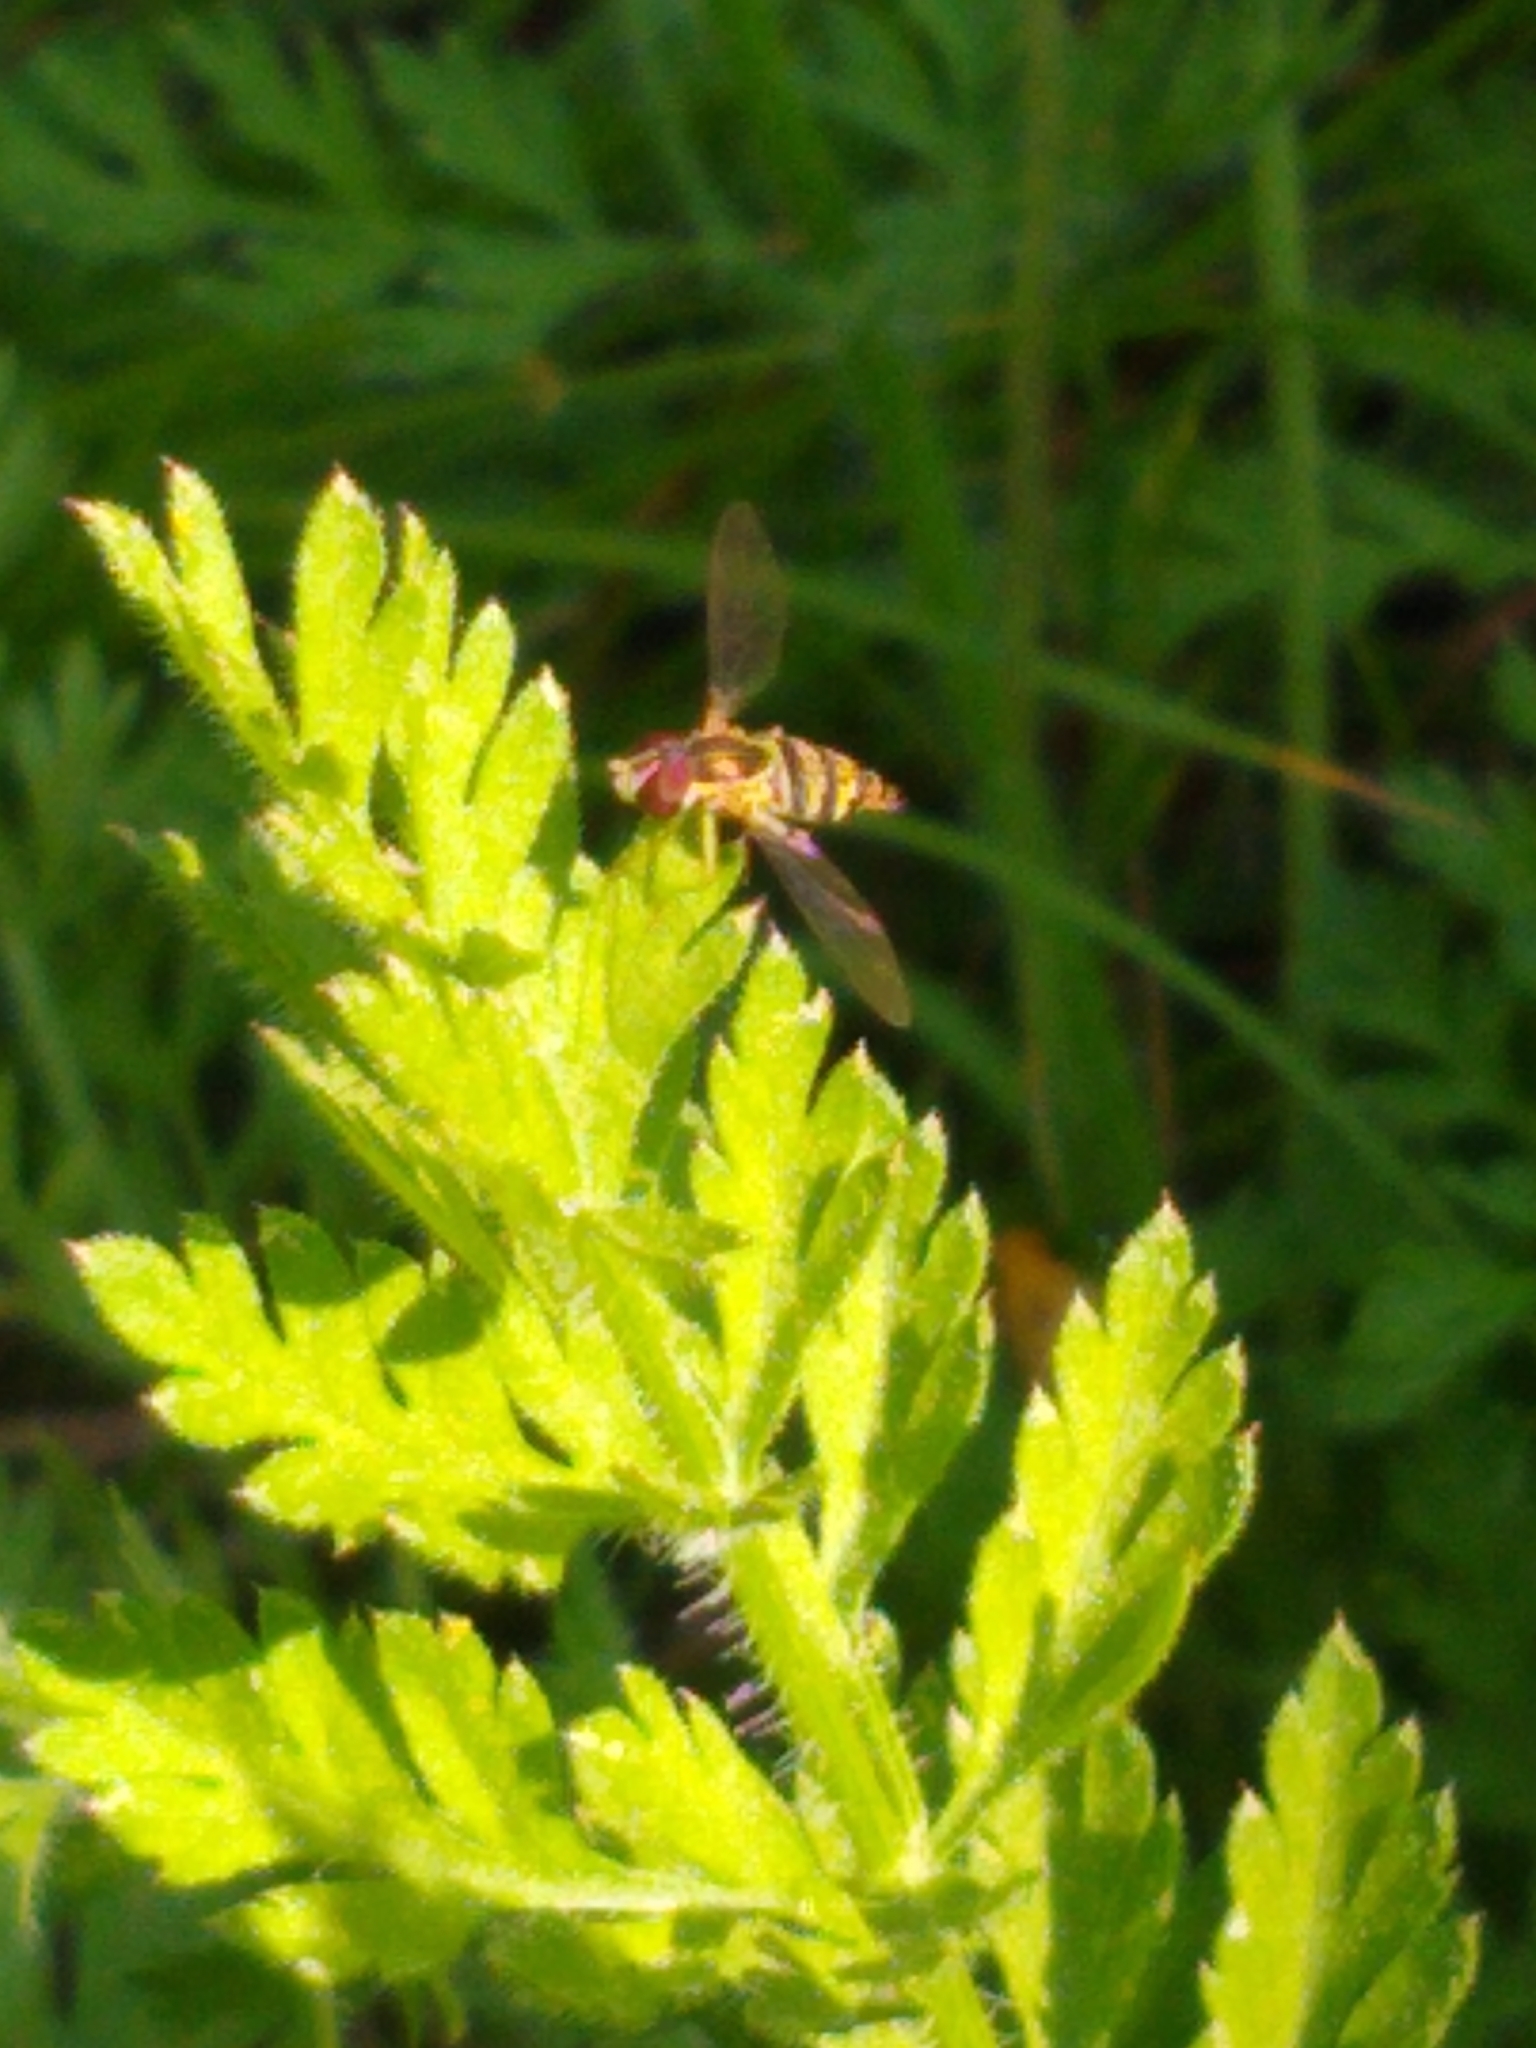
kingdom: Animalia
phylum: Arthropoda
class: Insecta
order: Diptera
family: Syrphidae
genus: Toxomerus
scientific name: Toxomerus geminatus
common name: Eastern calligrapher
